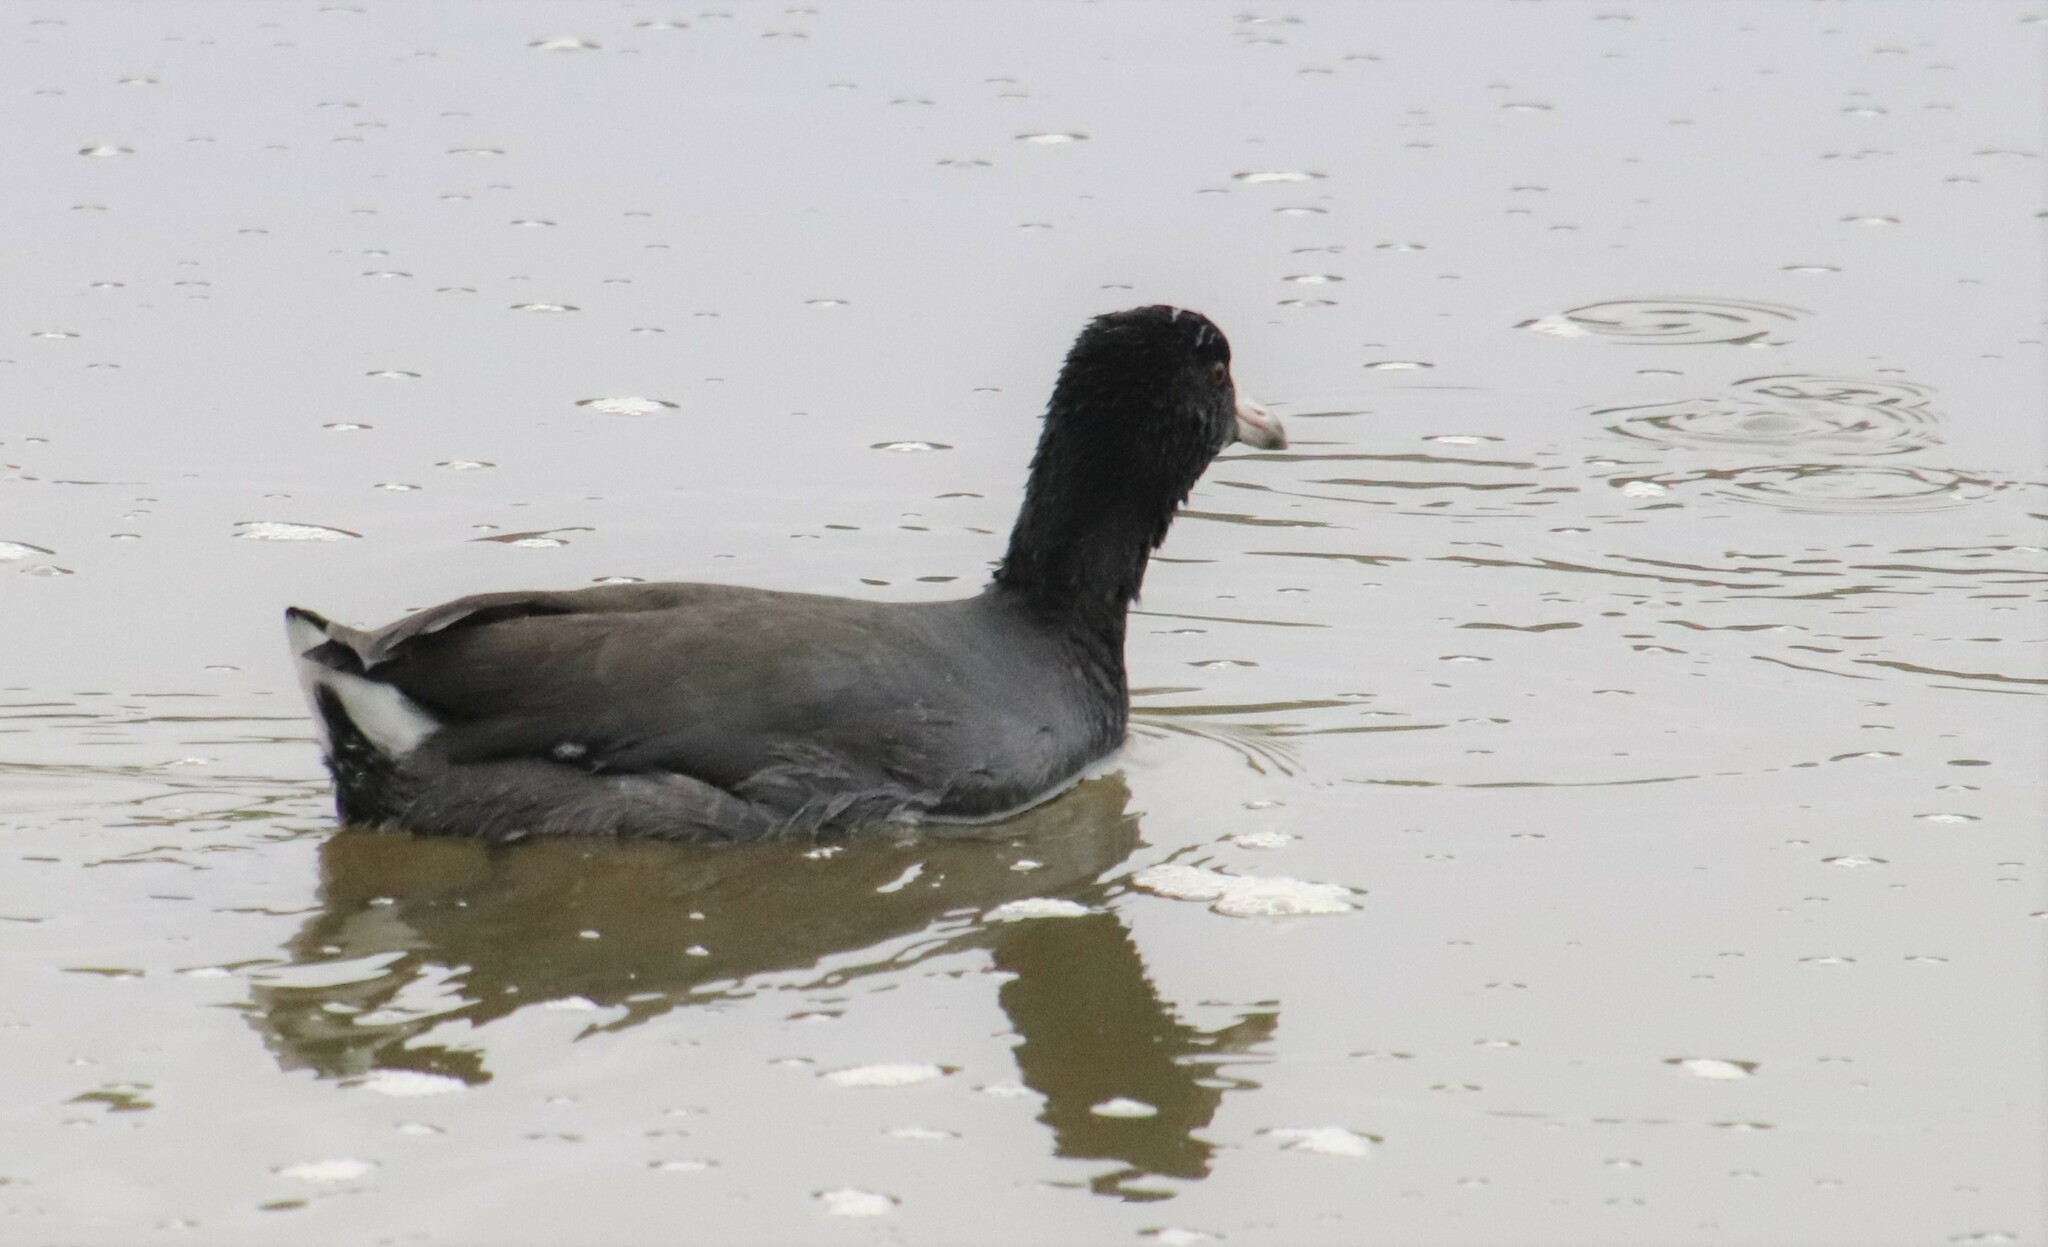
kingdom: Animalia
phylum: Chordata
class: Aves
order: Gruiformes
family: Rallidae
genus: Fulica
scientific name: Fulica americana
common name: American coot
